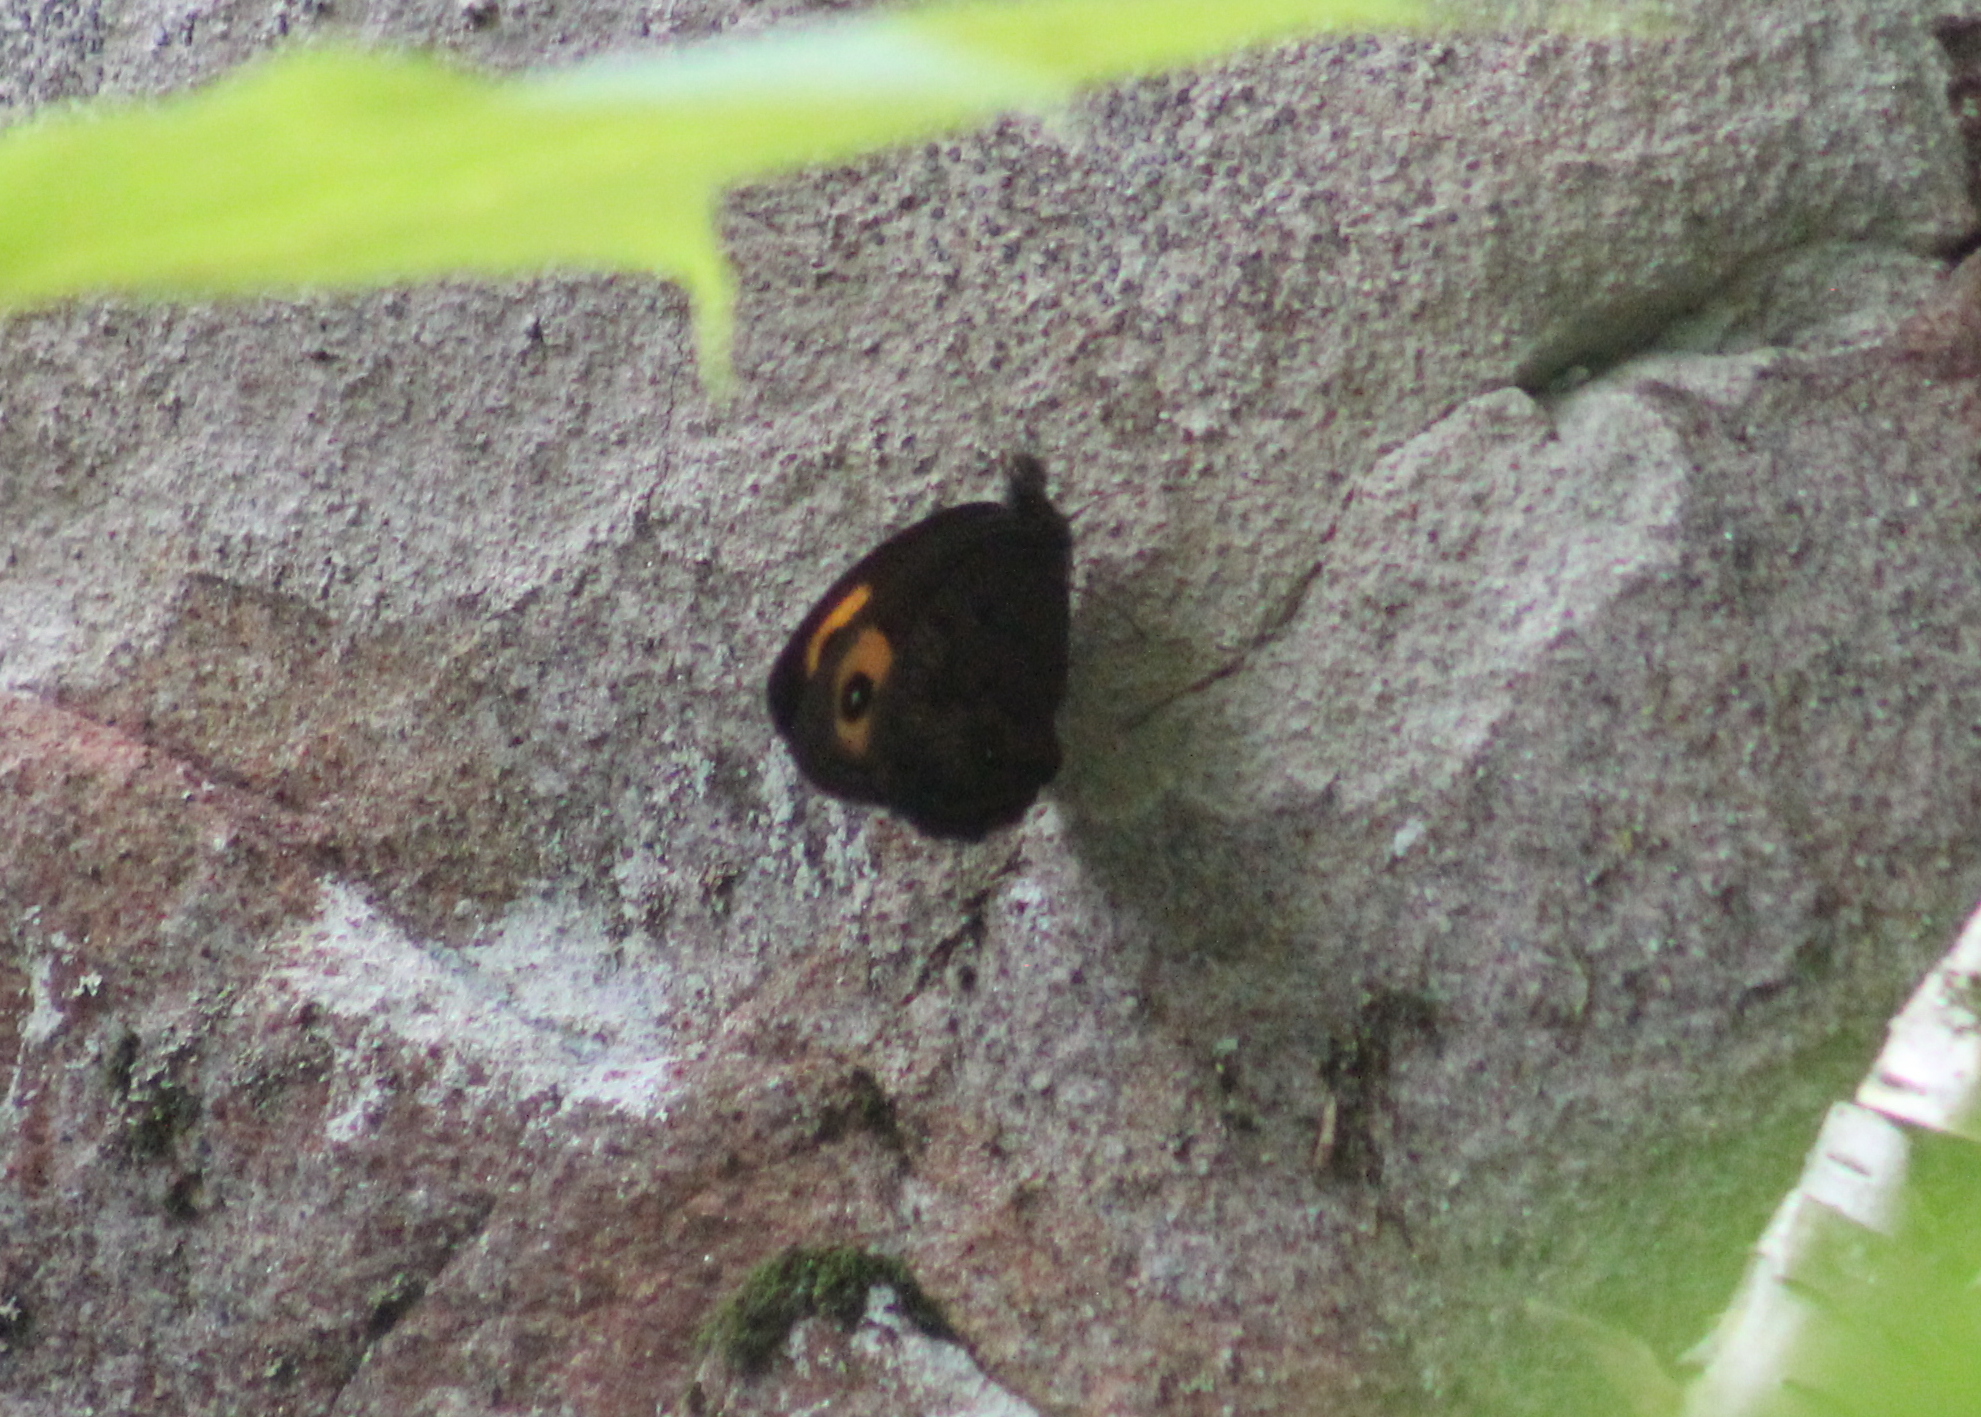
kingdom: Animalia
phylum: Arthropoda
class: Insecta
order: Lepidoptera
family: Nymphalidae
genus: Cercyonis
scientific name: Cercyonis pegala
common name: Common wood-nymph
